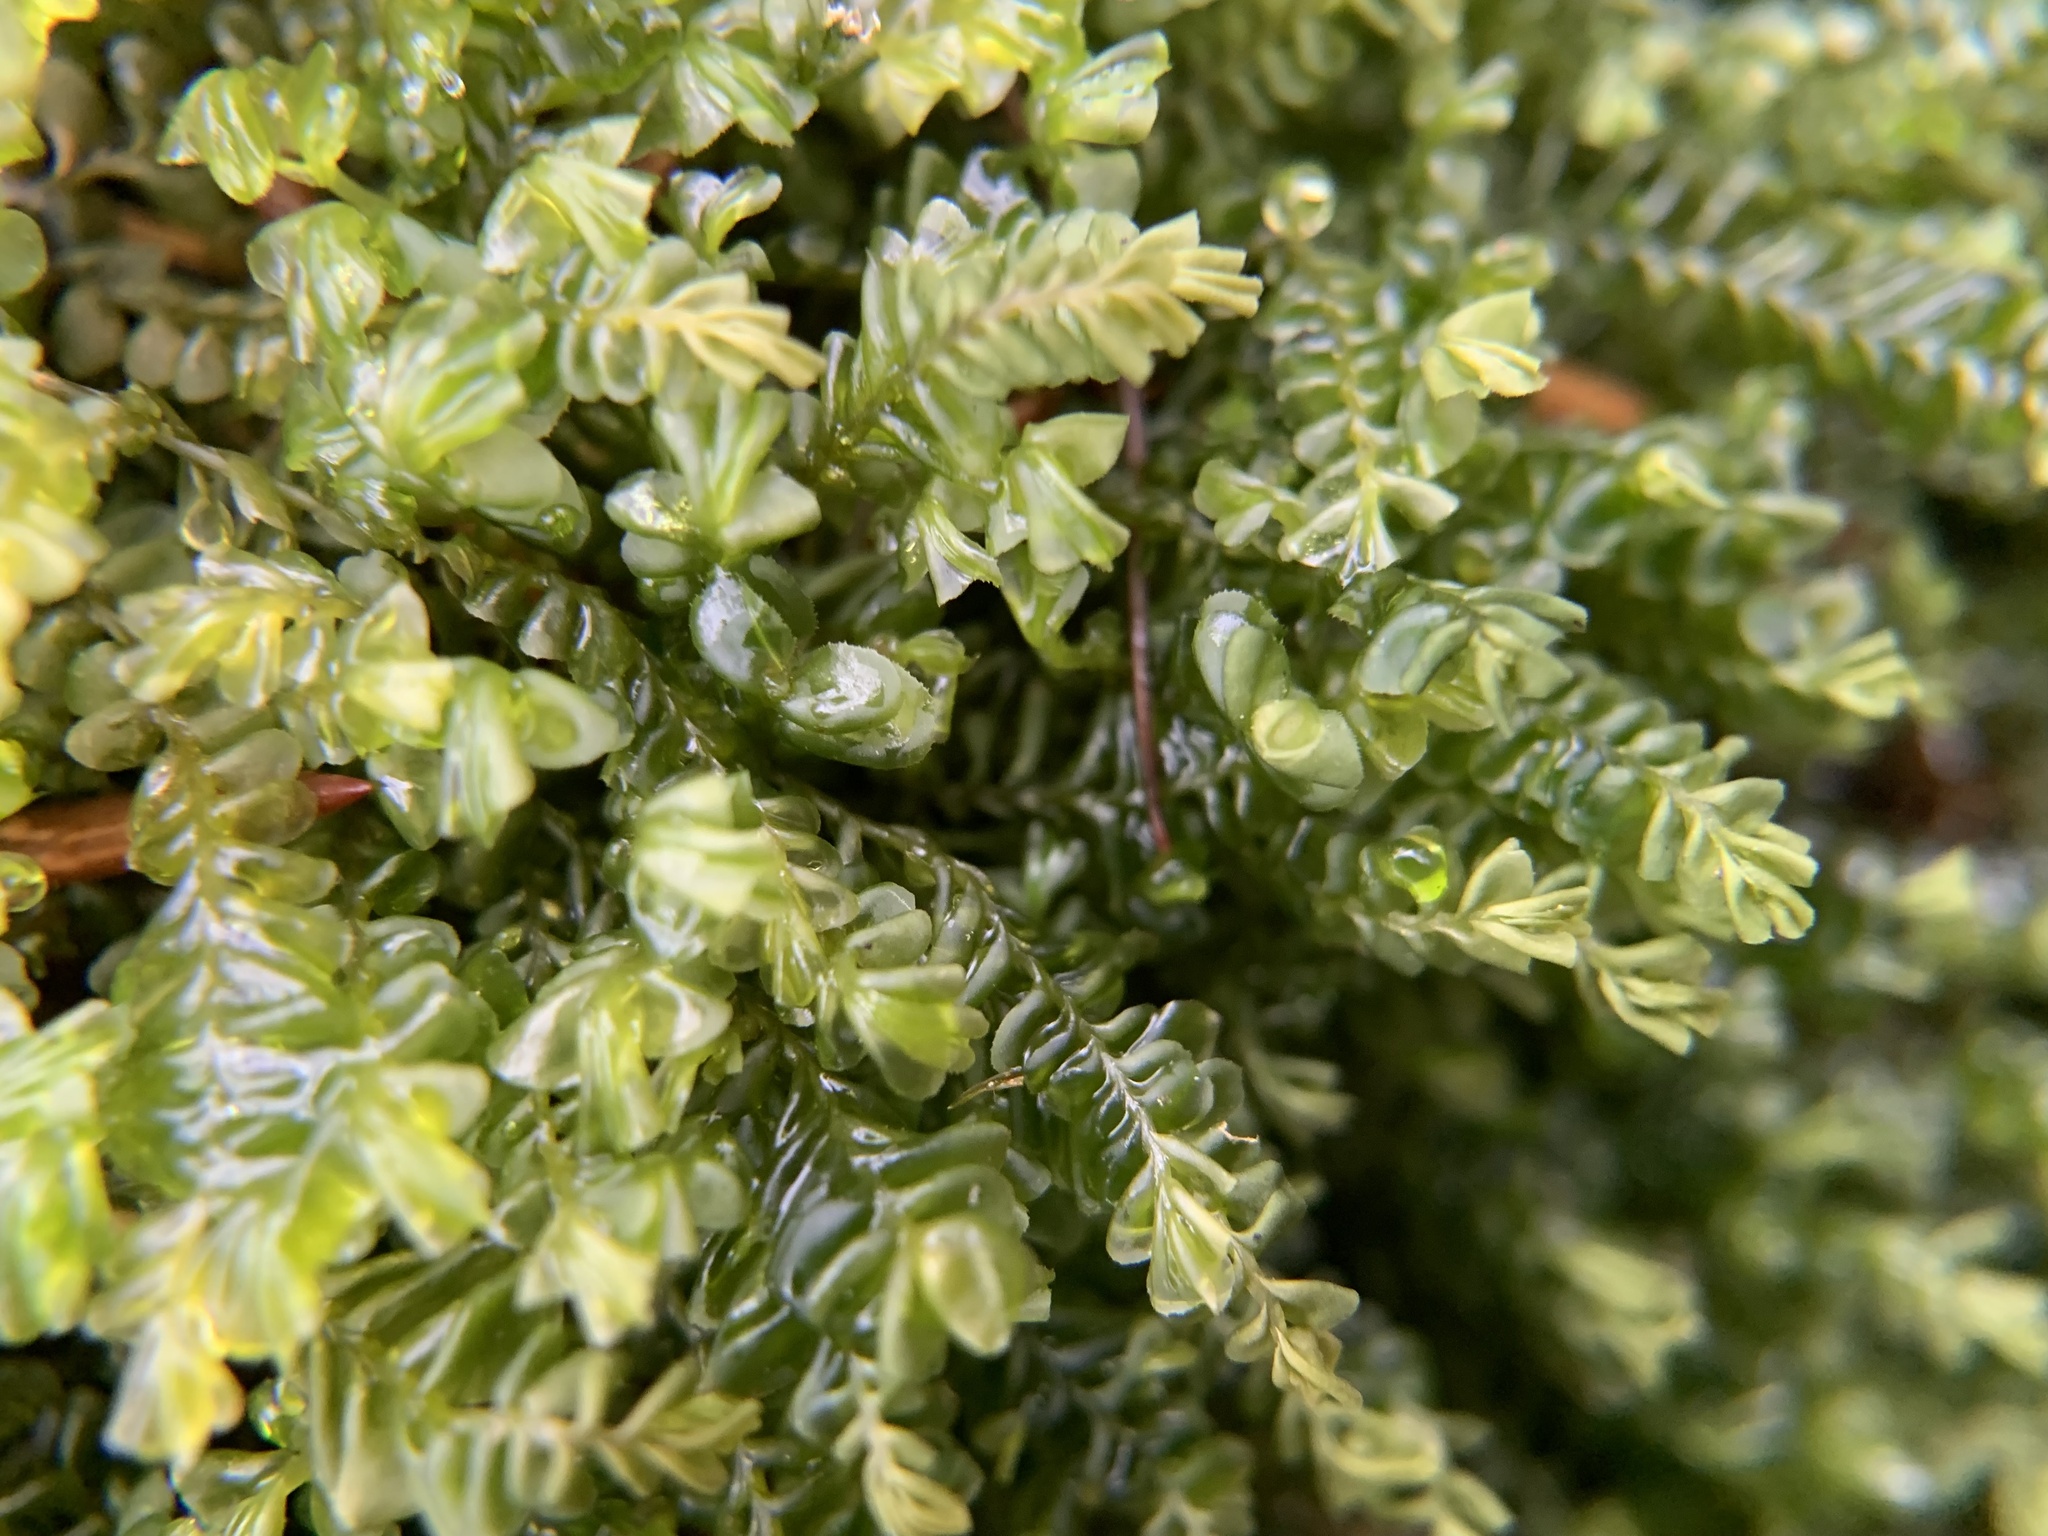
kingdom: Plantae
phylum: Marchantiophyta
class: Jungermanniopsida
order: Jungermanniales
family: Plagiochilaceae
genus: Plagiochila
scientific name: Plagiochila porelloides
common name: Lesser featherwort
